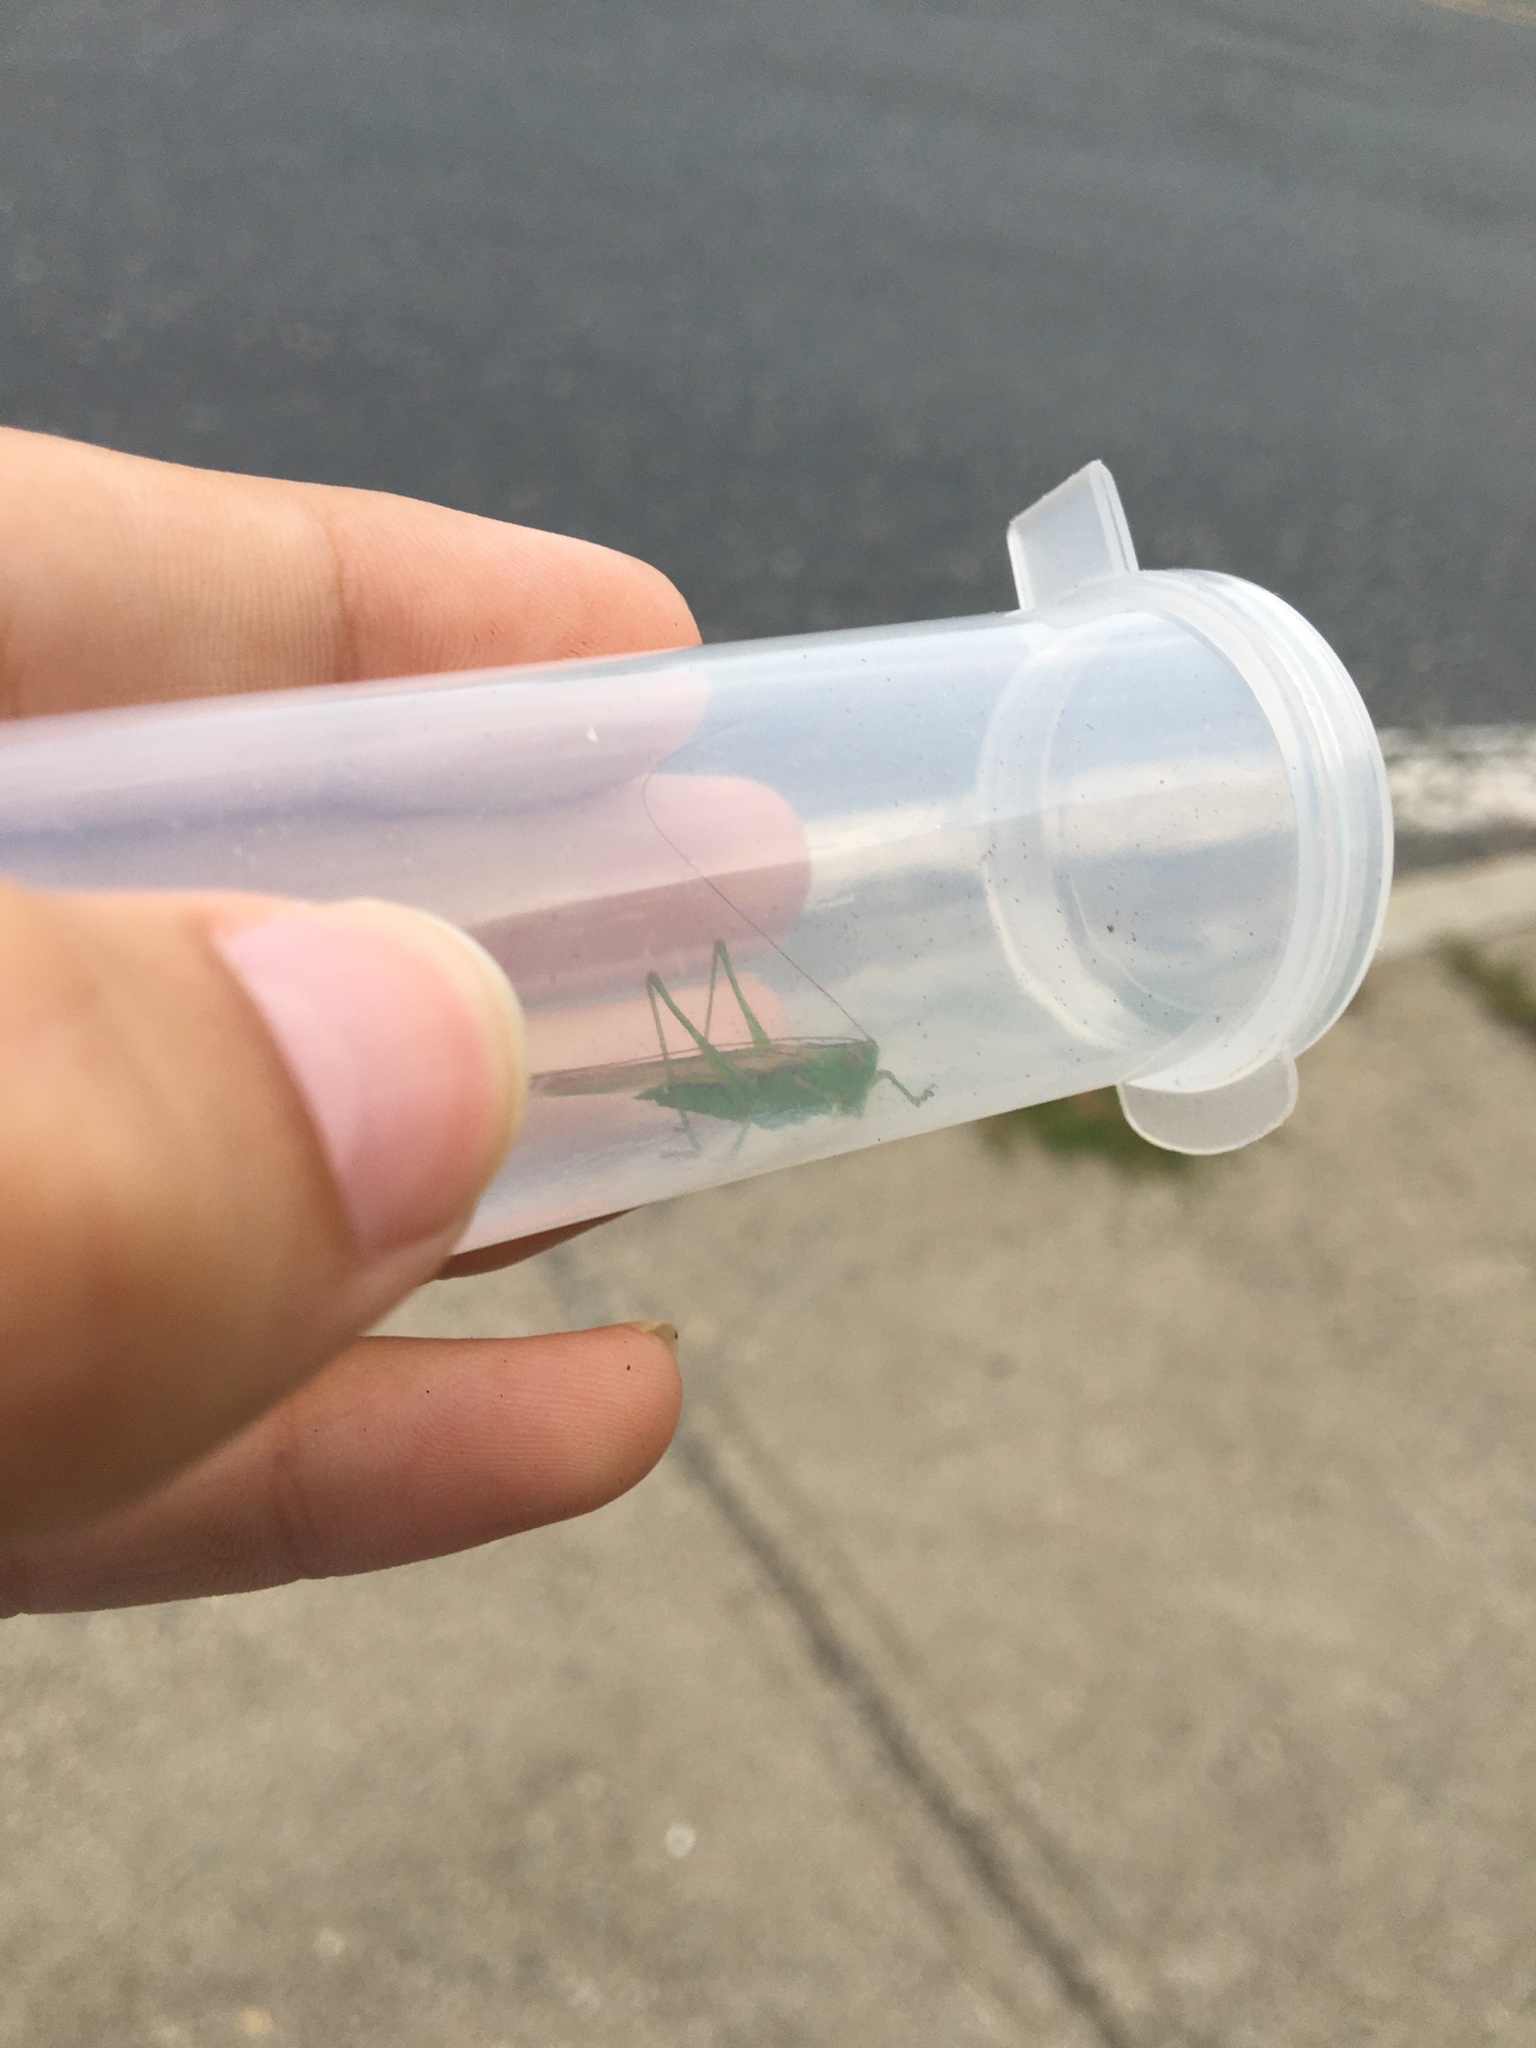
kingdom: Animalia
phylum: Arthropoda
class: Insecta
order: Orthoptera
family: Tettigoniidae
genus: Conocephalus
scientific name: Conocephalus fasciatus
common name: Slender meadow katydid
